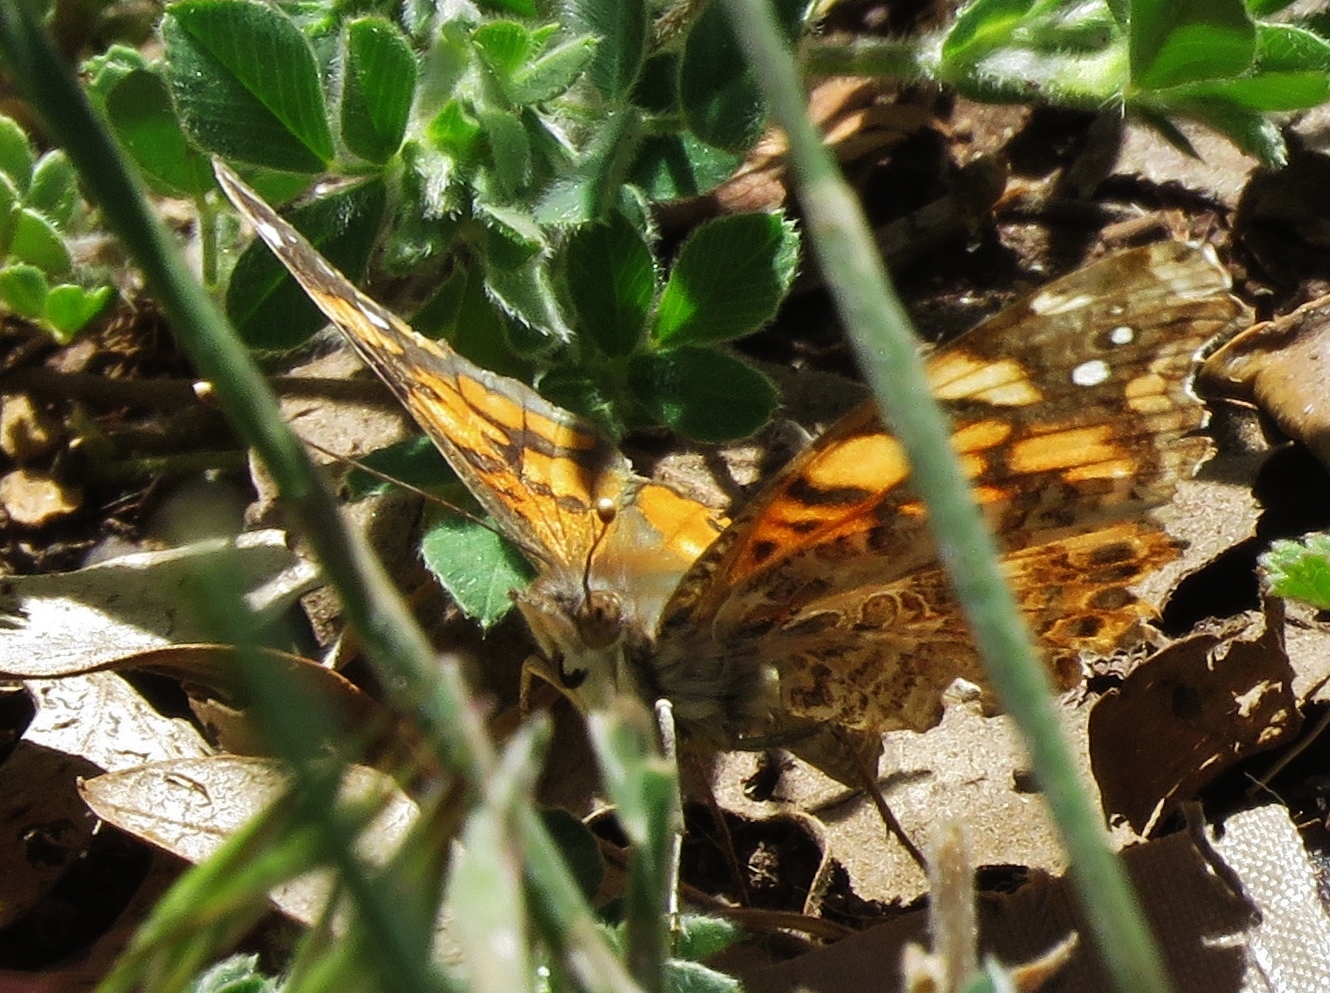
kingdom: Animalia
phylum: Arthropoda
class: Insecta
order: Lepidoptera
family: Nymphalidae
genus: Vanessa
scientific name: Vanessa annabella
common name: West coast lady
